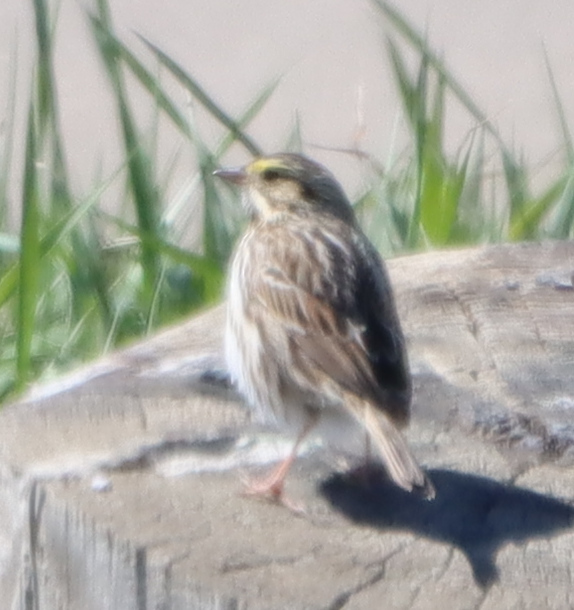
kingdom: Animalia
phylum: Chordata
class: Aves
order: Passeriformes
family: Passerellidae
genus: Passerculus
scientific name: Passerculus sandwichensis
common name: Savannah sparrow
